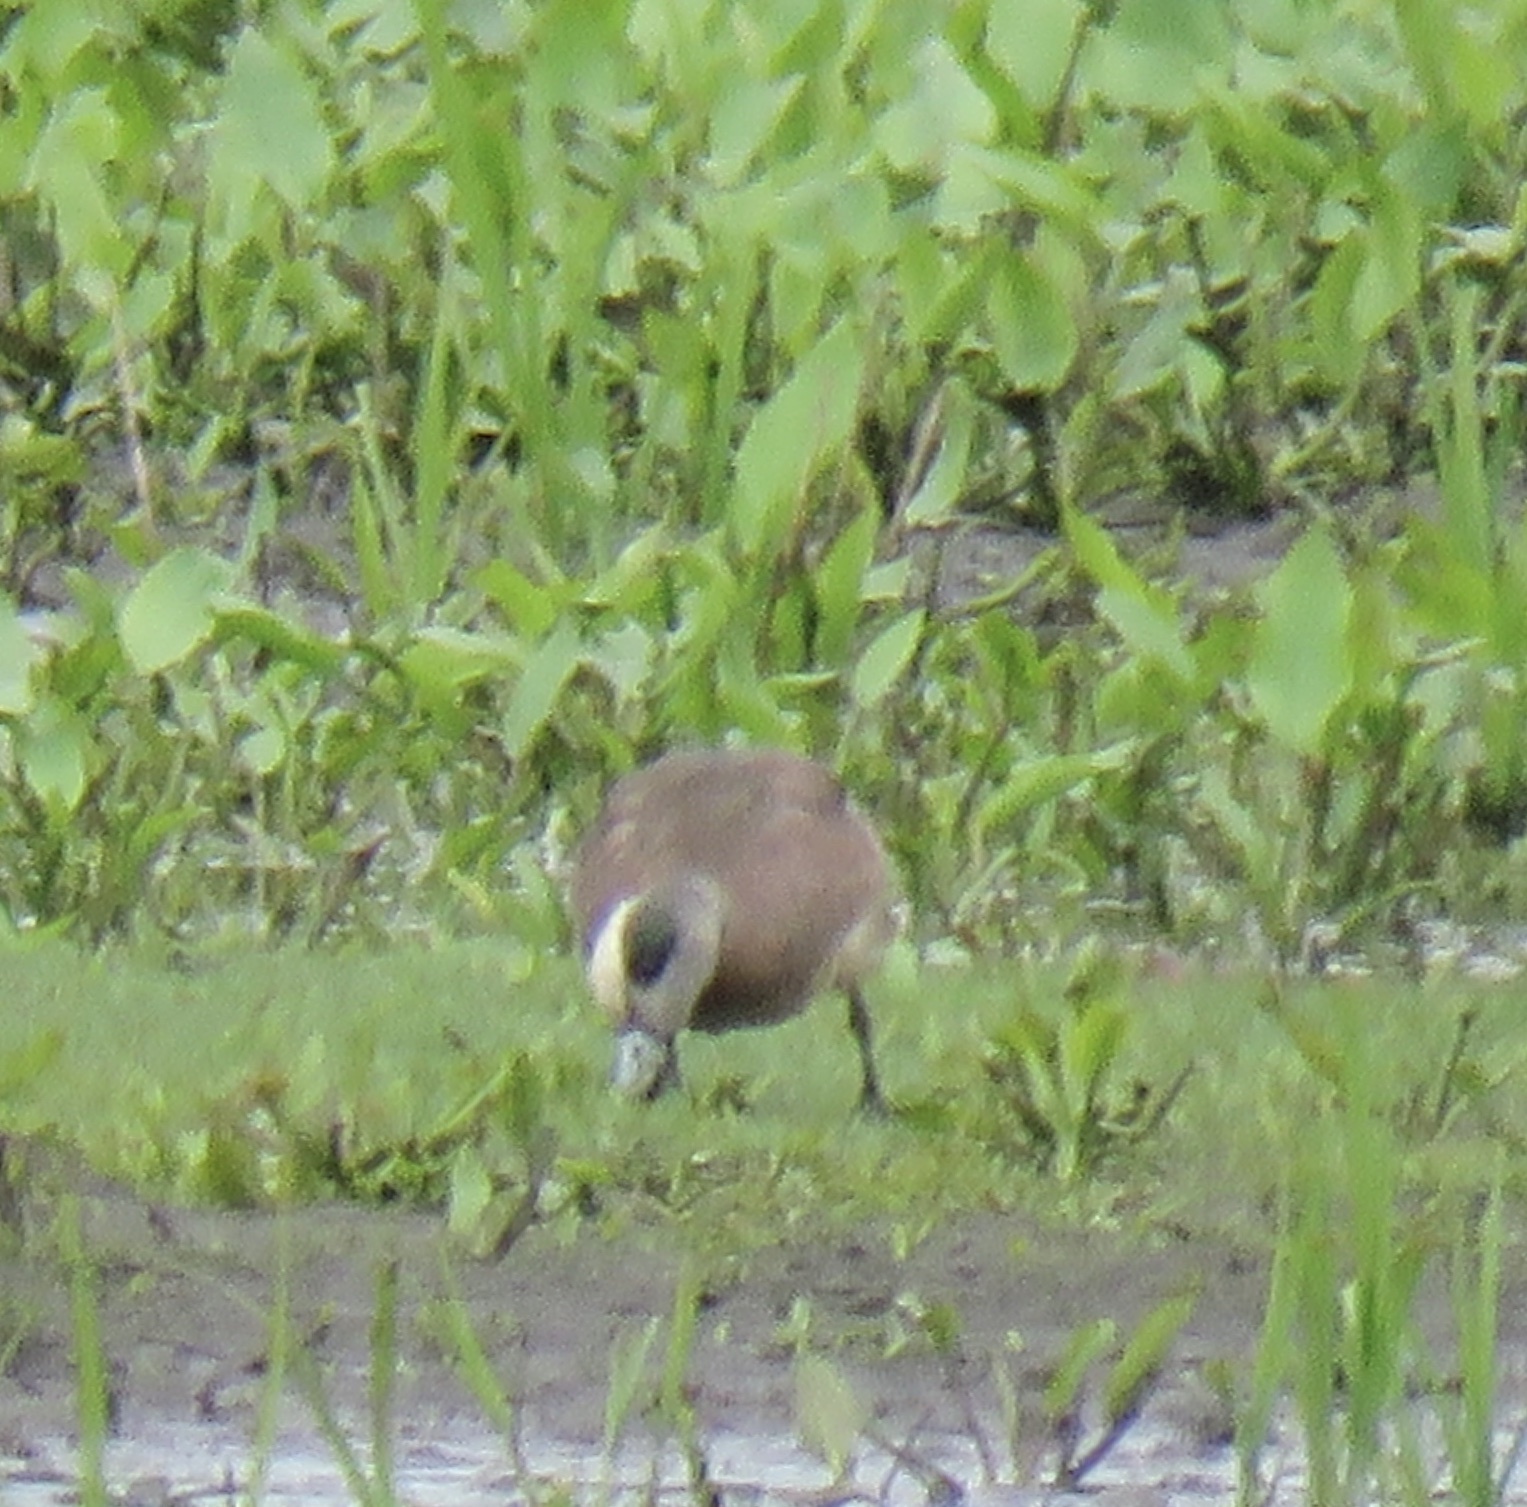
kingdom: Animalia
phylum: Chordata
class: Aves
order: Anseriformes
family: Anatidae
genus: Mareca
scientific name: Mareca americana
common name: American wigeon
